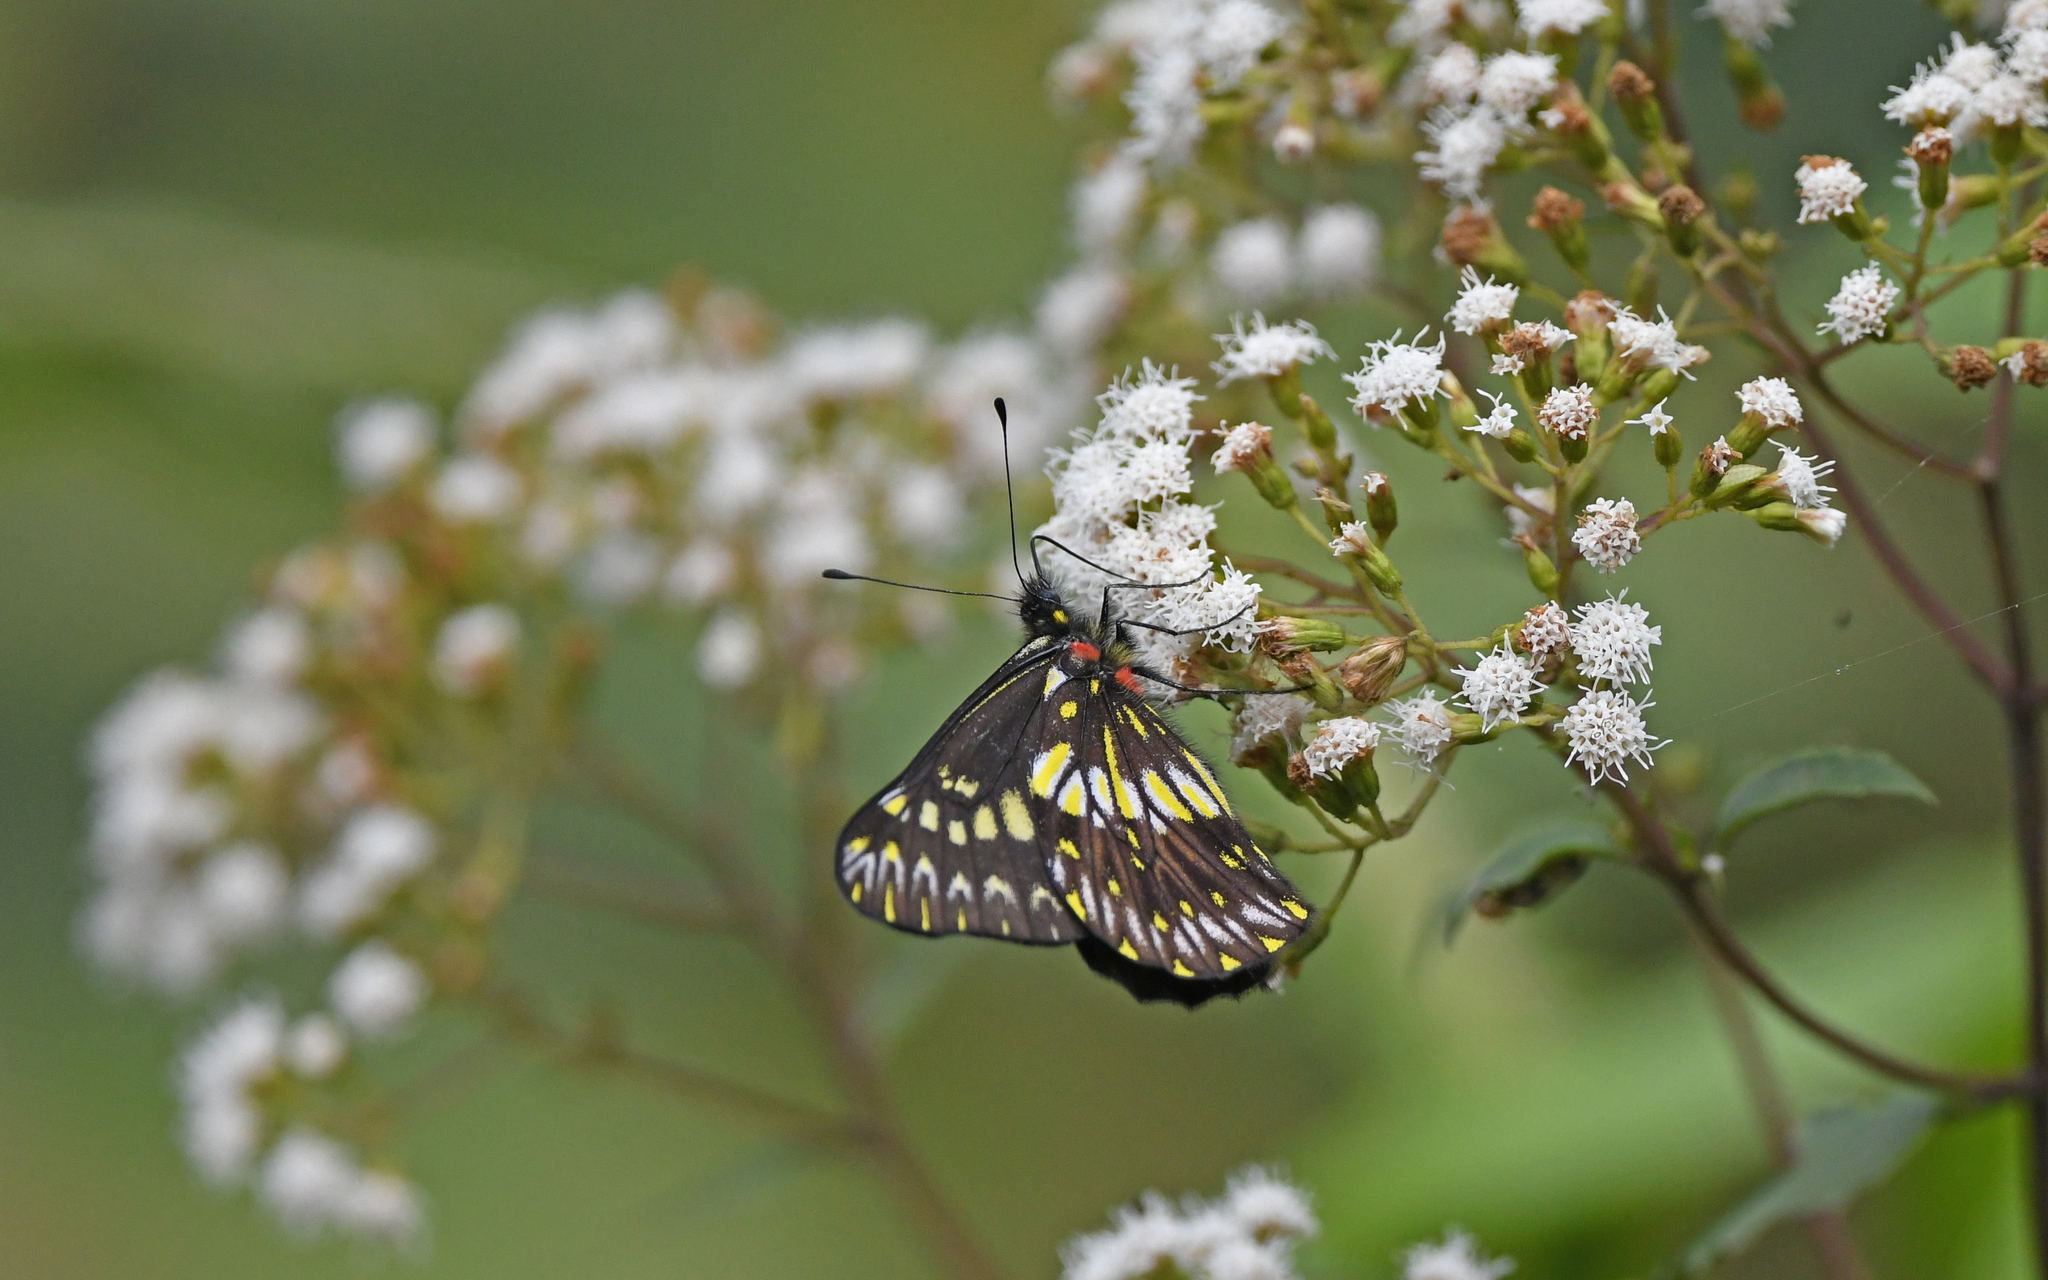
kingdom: Animalia
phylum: Arthropoda
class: Insecta
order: Lepidoptera
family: Pieridae
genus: Catasticta
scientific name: Catasticta colla
